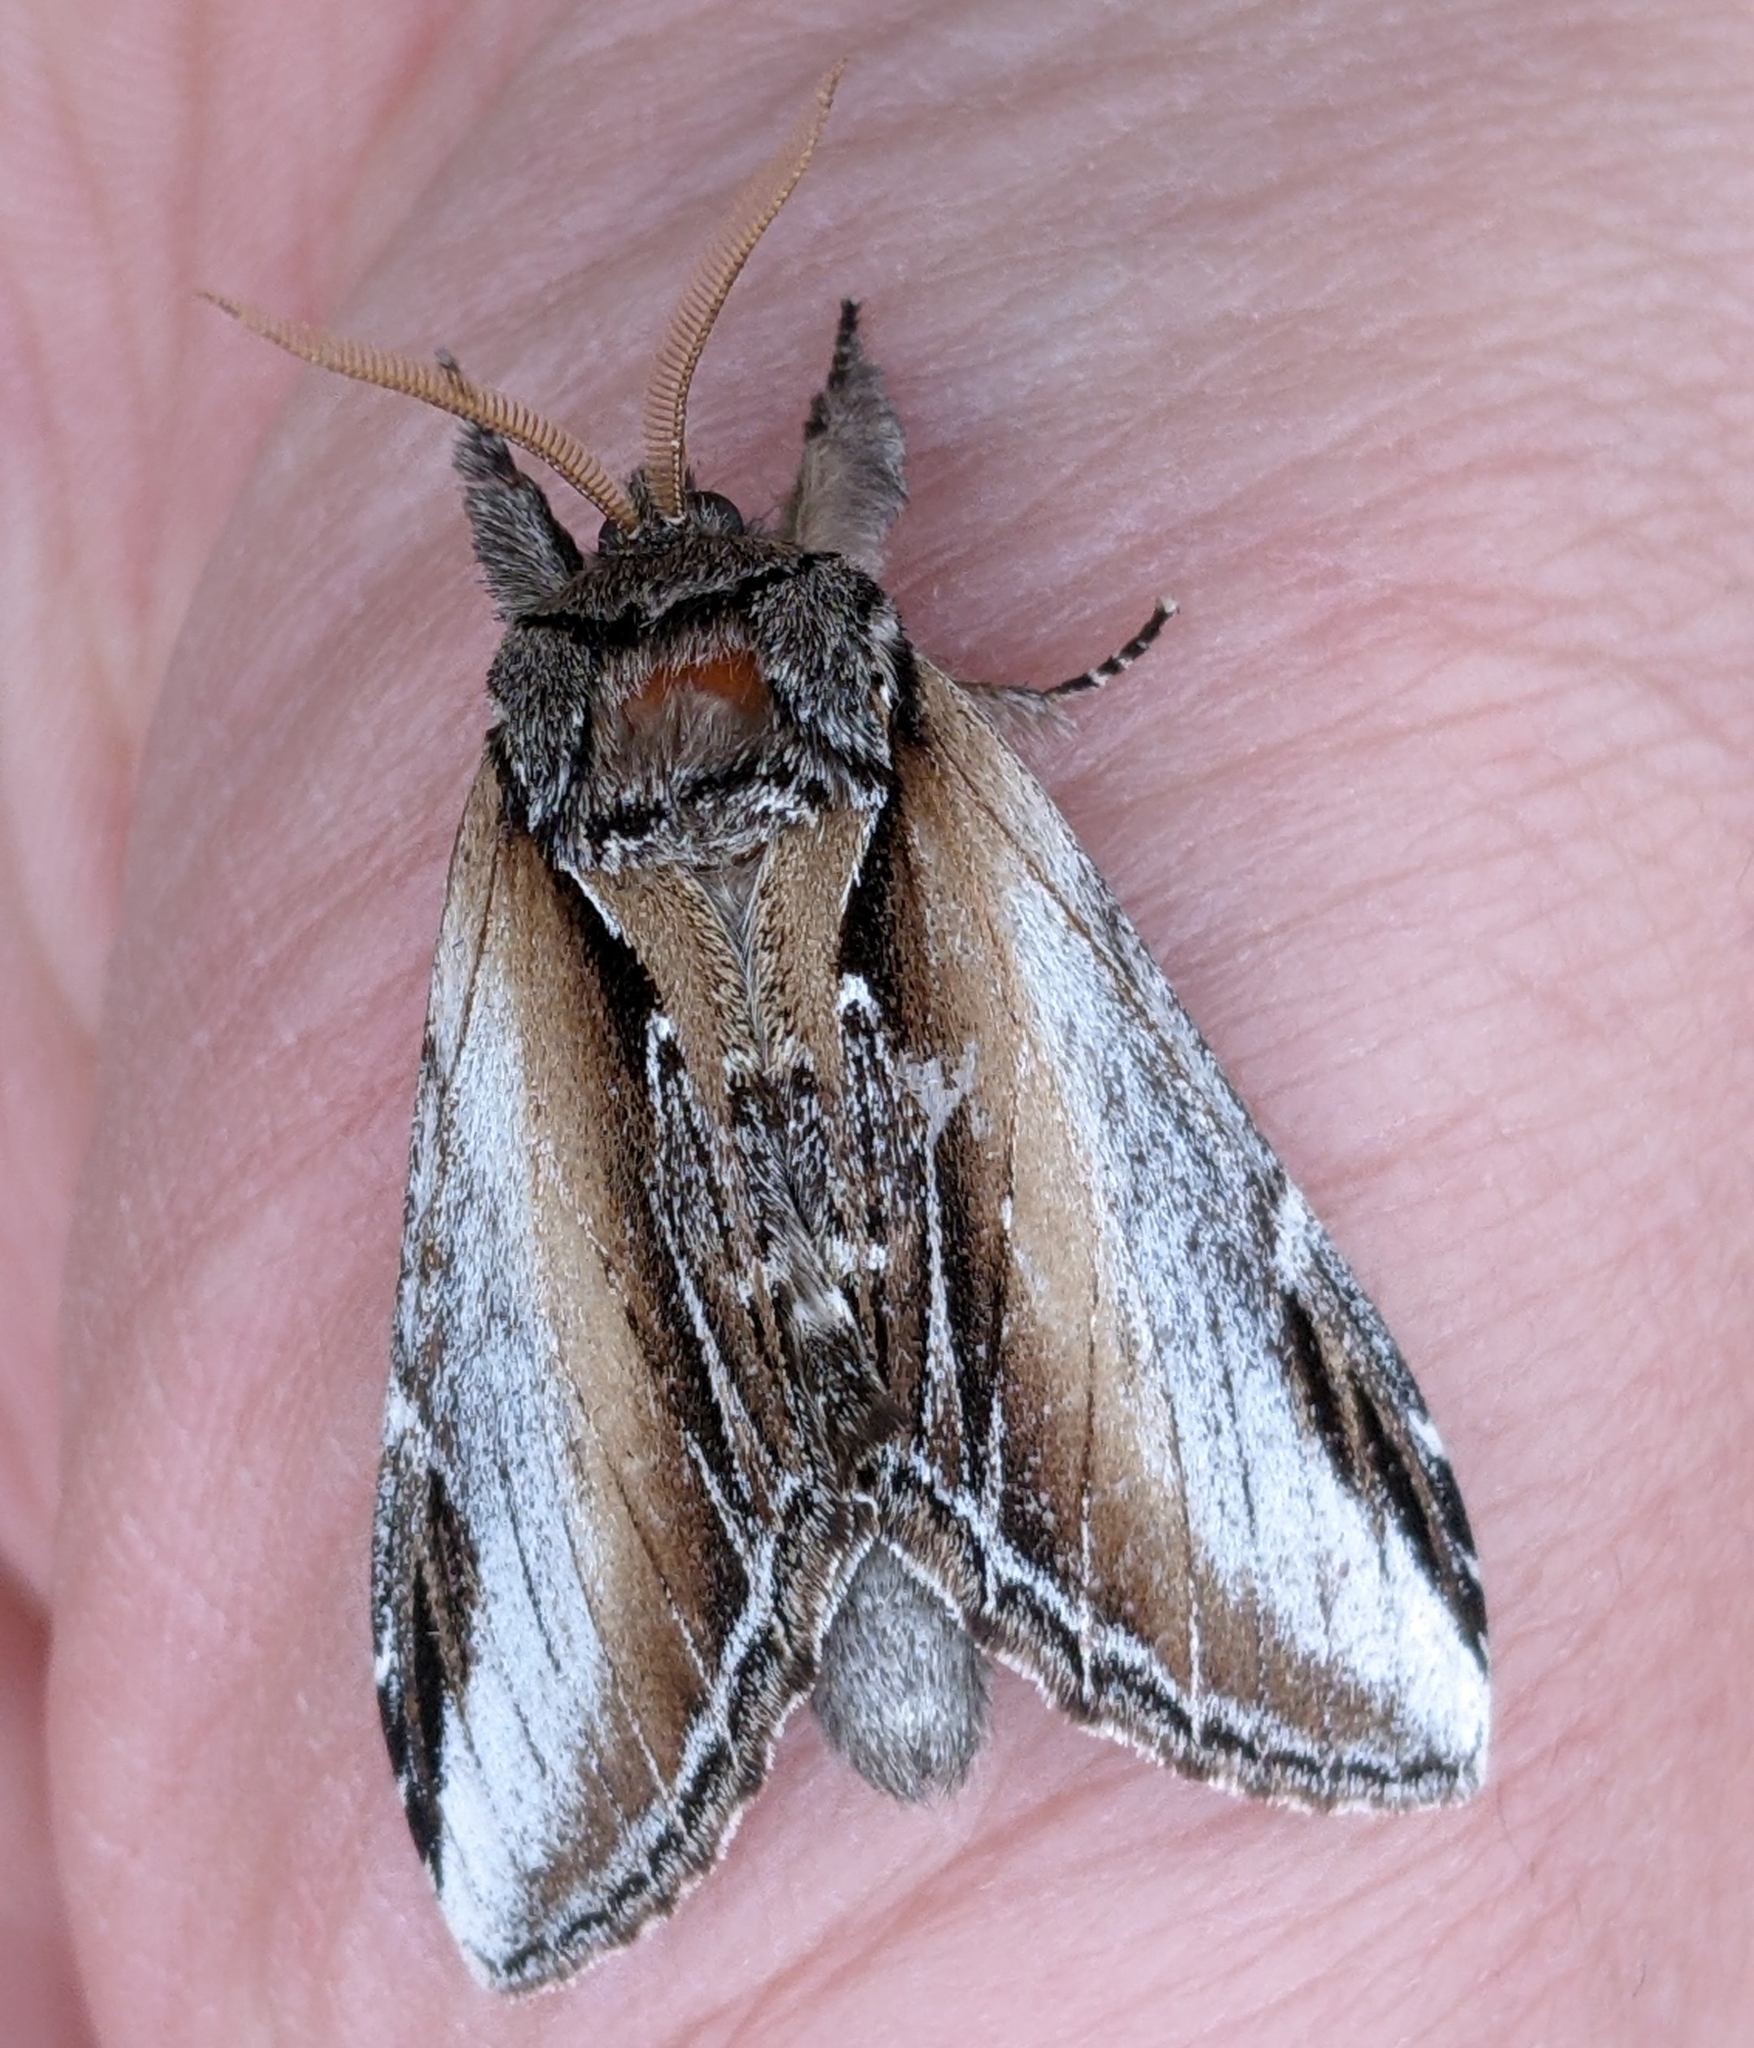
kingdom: Animalia
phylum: Arthropoda
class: Insecta
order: Lepidoptera
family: Notodontidae
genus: Pheosia
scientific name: Pheosia rimosa
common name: Black-rimmed prominent
